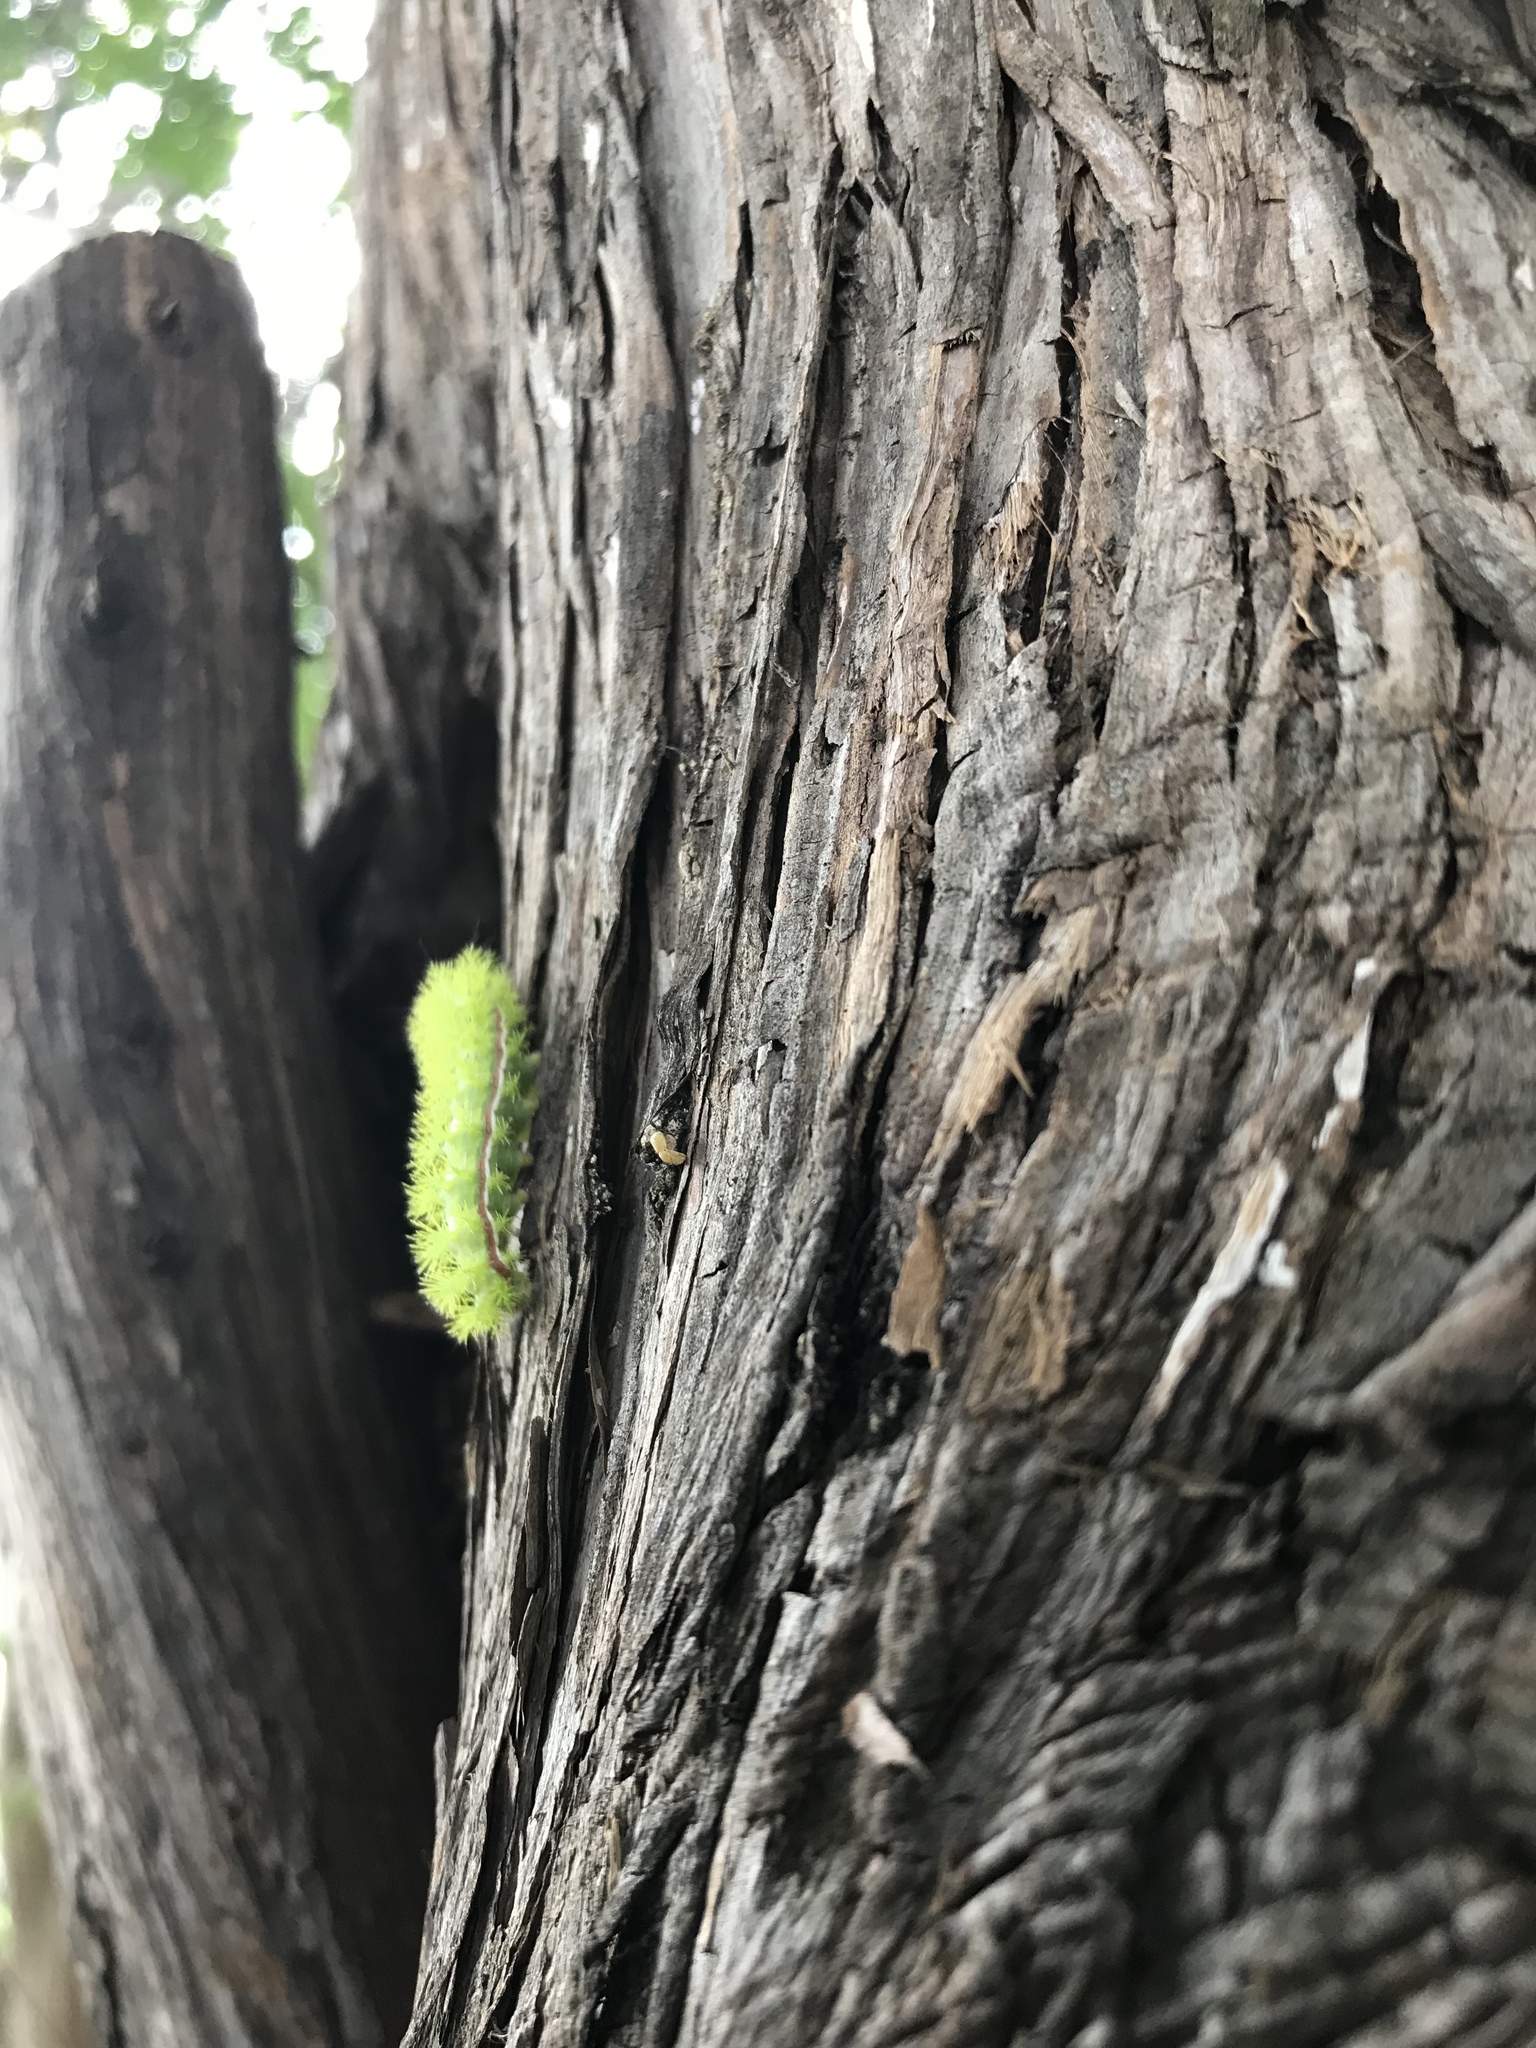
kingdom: Animalia
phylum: Arthropoda
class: Insecta
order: Lepidoptera
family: Saturniidae
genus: Automeris
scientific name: Automeris io
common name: Io moth
